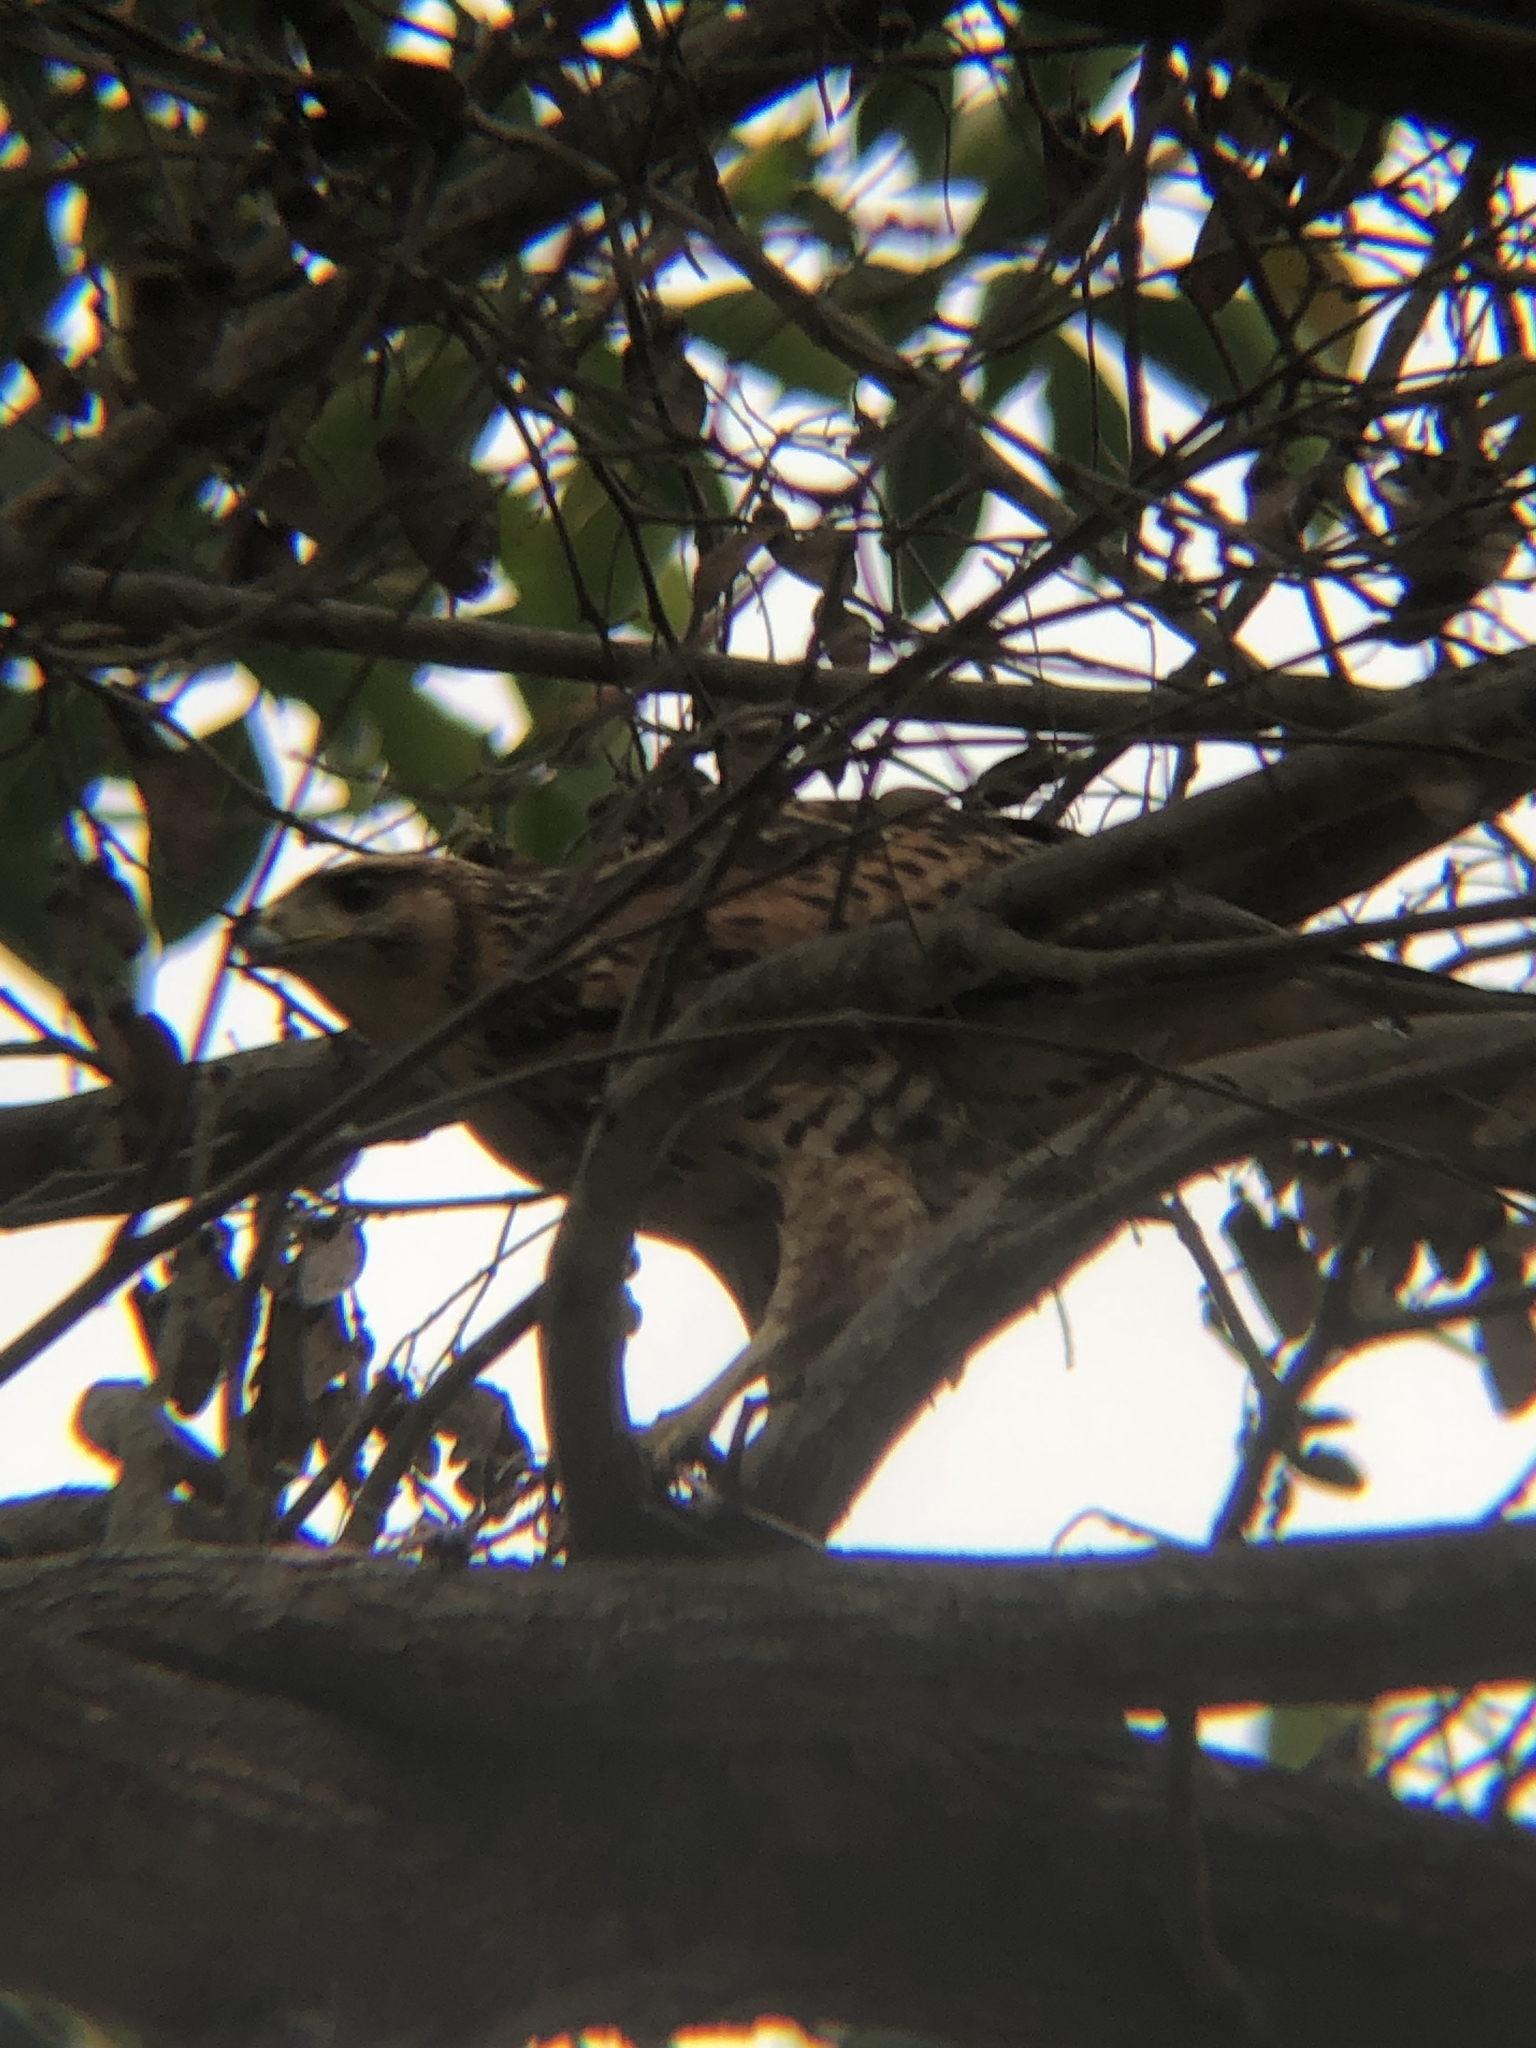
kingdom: Animalia
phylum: Chordata
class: Aves
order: Accipitriformes
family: Accipitridae
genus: Parabuteo
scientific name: Parabuteo unicinctus
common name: Harris's hawk
